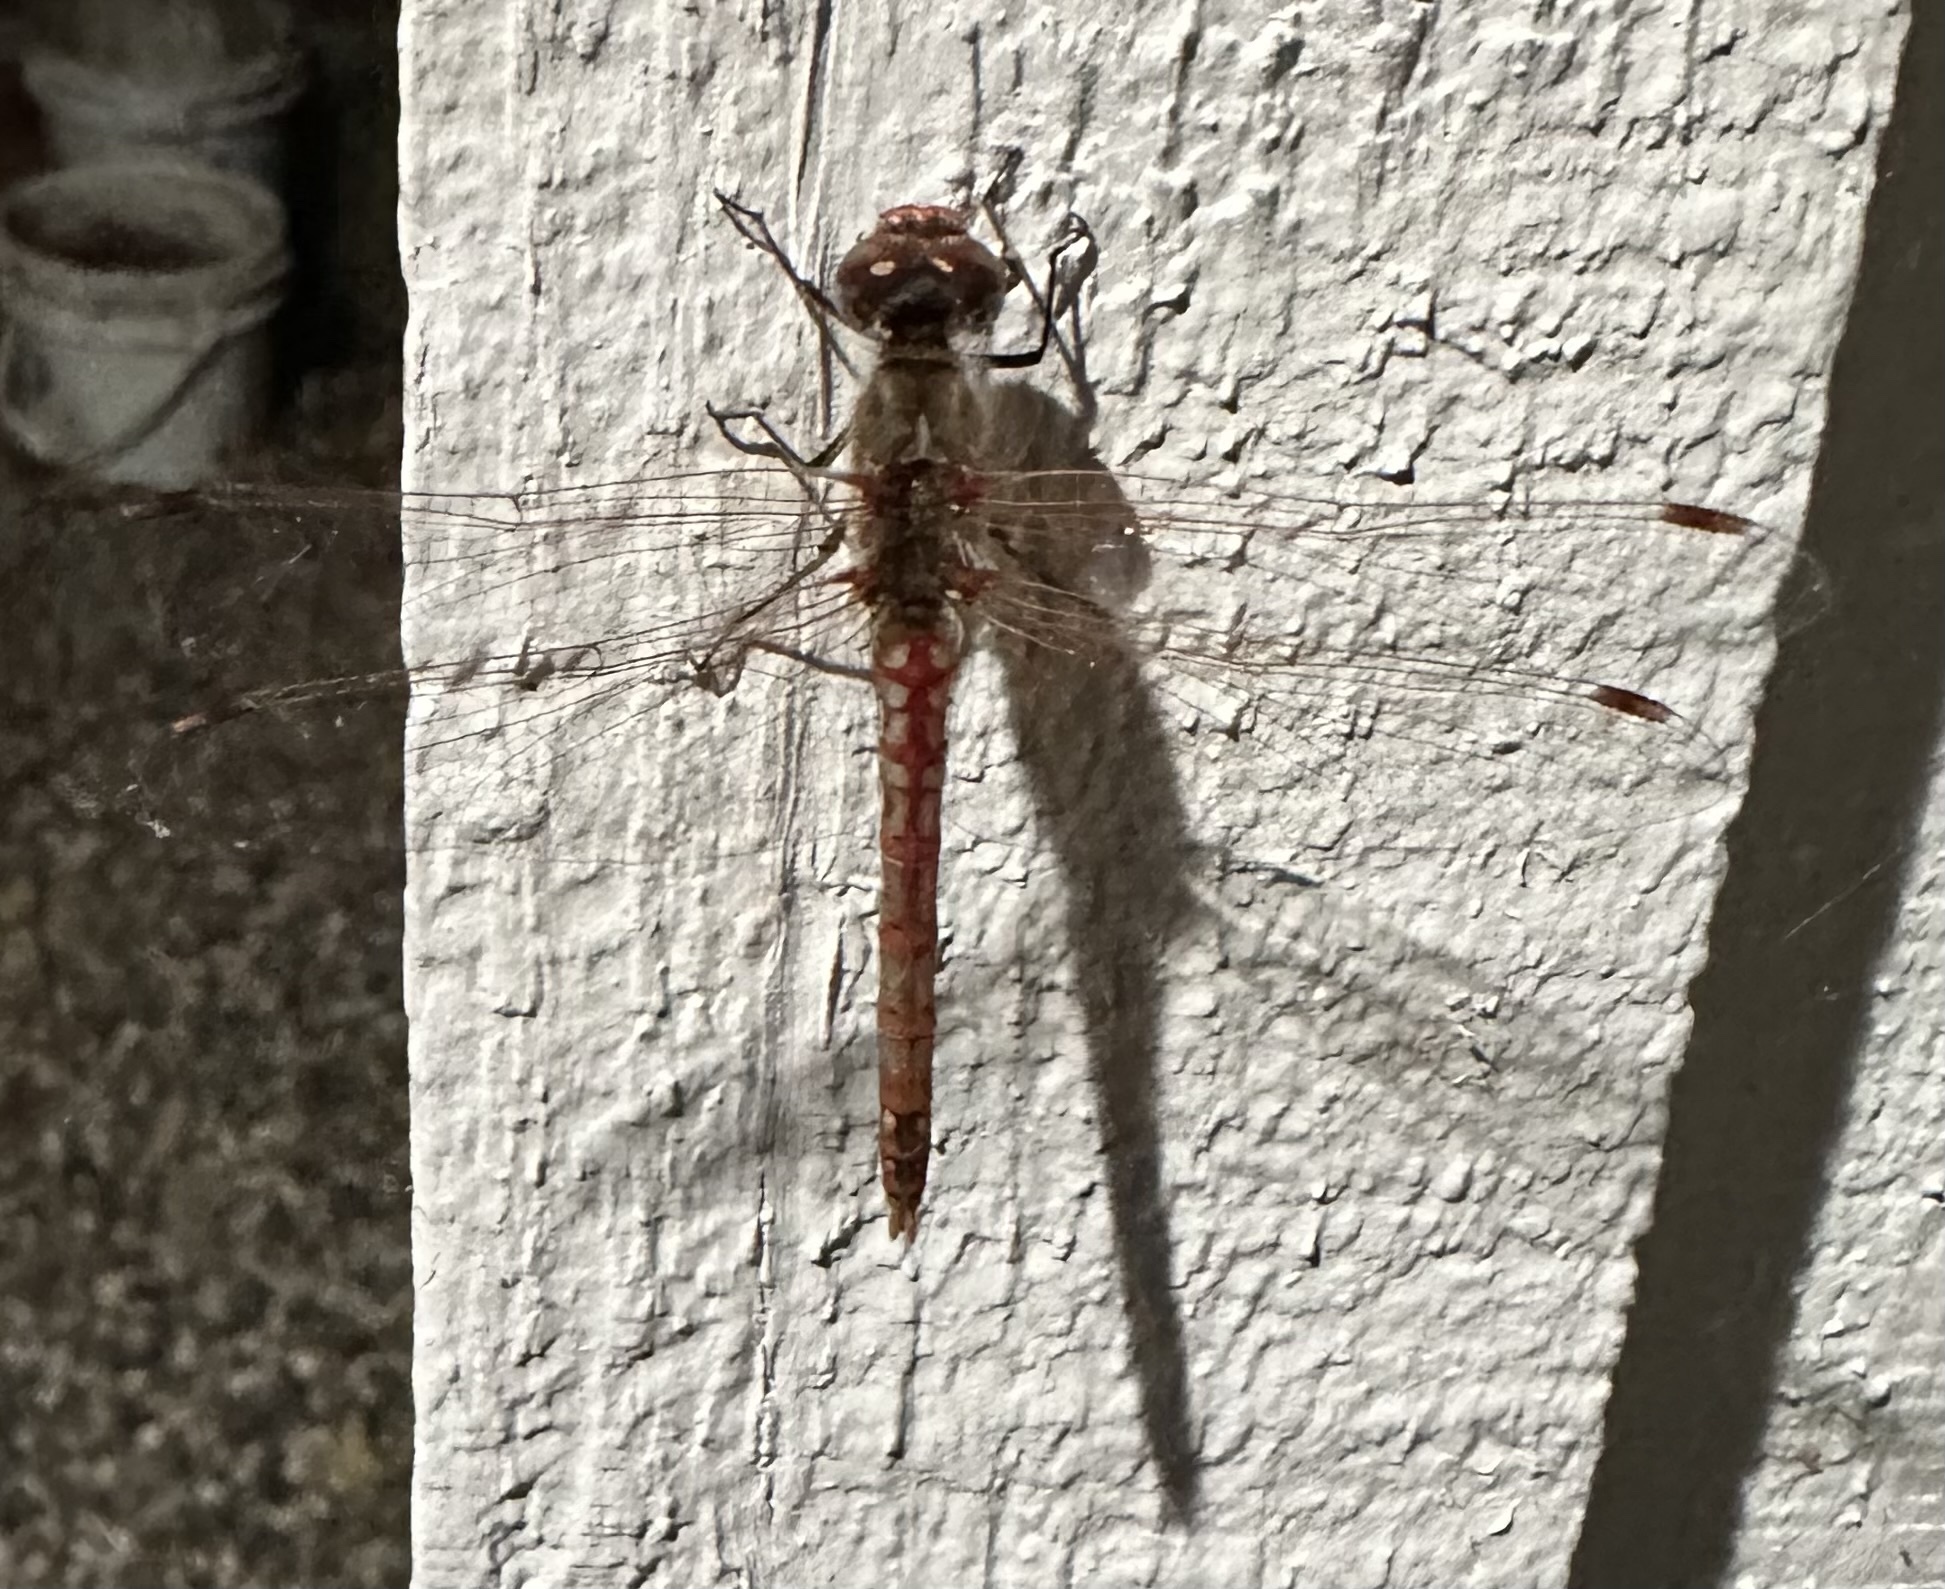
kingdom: Animalia
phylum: Arthropoda
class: Insecta
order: Odonata
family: Libellulidae
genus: Sympetrum
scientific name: Sympetrum corruptum
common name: Variegated meadowhawk
